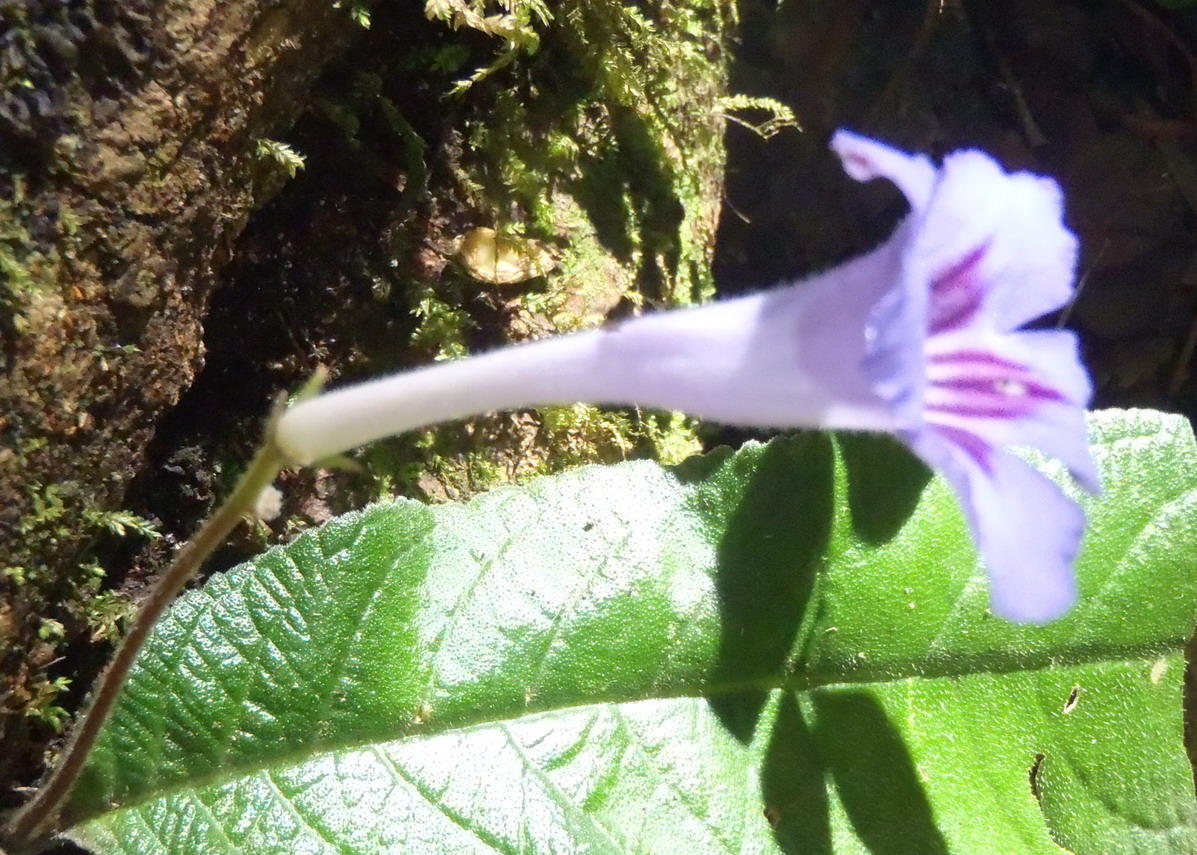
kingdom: Plantae
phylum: Tracheophyta
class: Magnoliopsida
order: Lamiales
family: Gesneriaceae
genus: Streptocarpus
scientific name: Streptocarpus rexii
